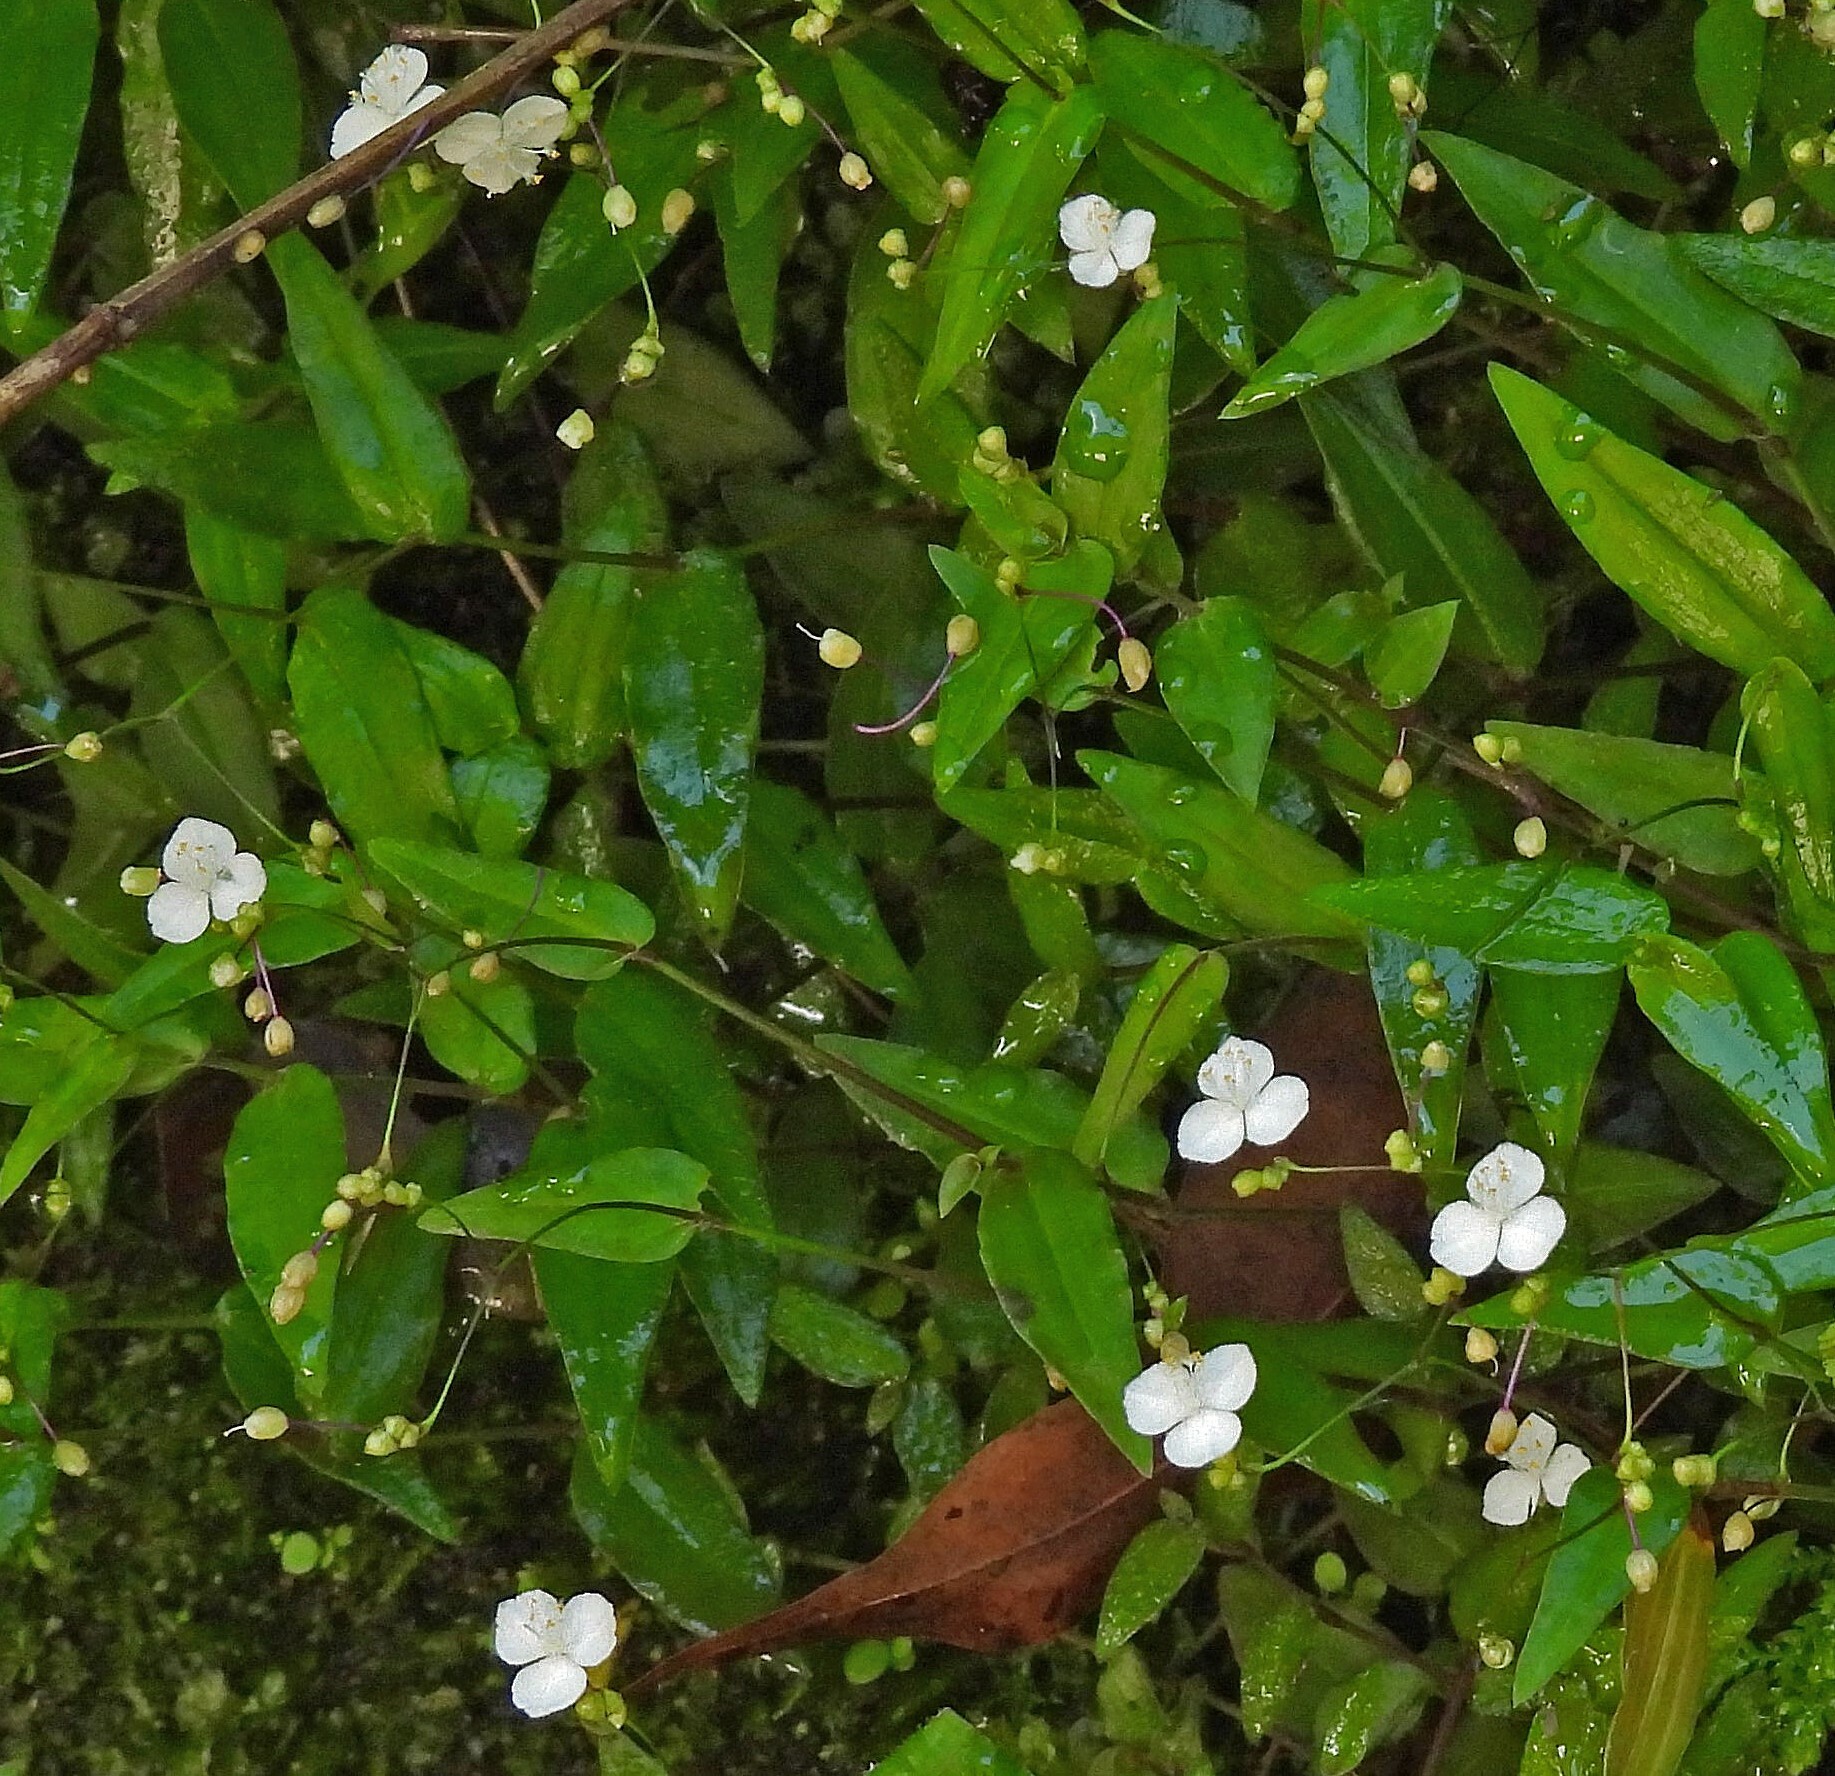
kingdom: Plantae
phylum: Tracheophyta
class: Liliopsida
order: Commelinales
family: Commelinaceae
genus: Gibasis
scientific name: Gibasis geniculata
